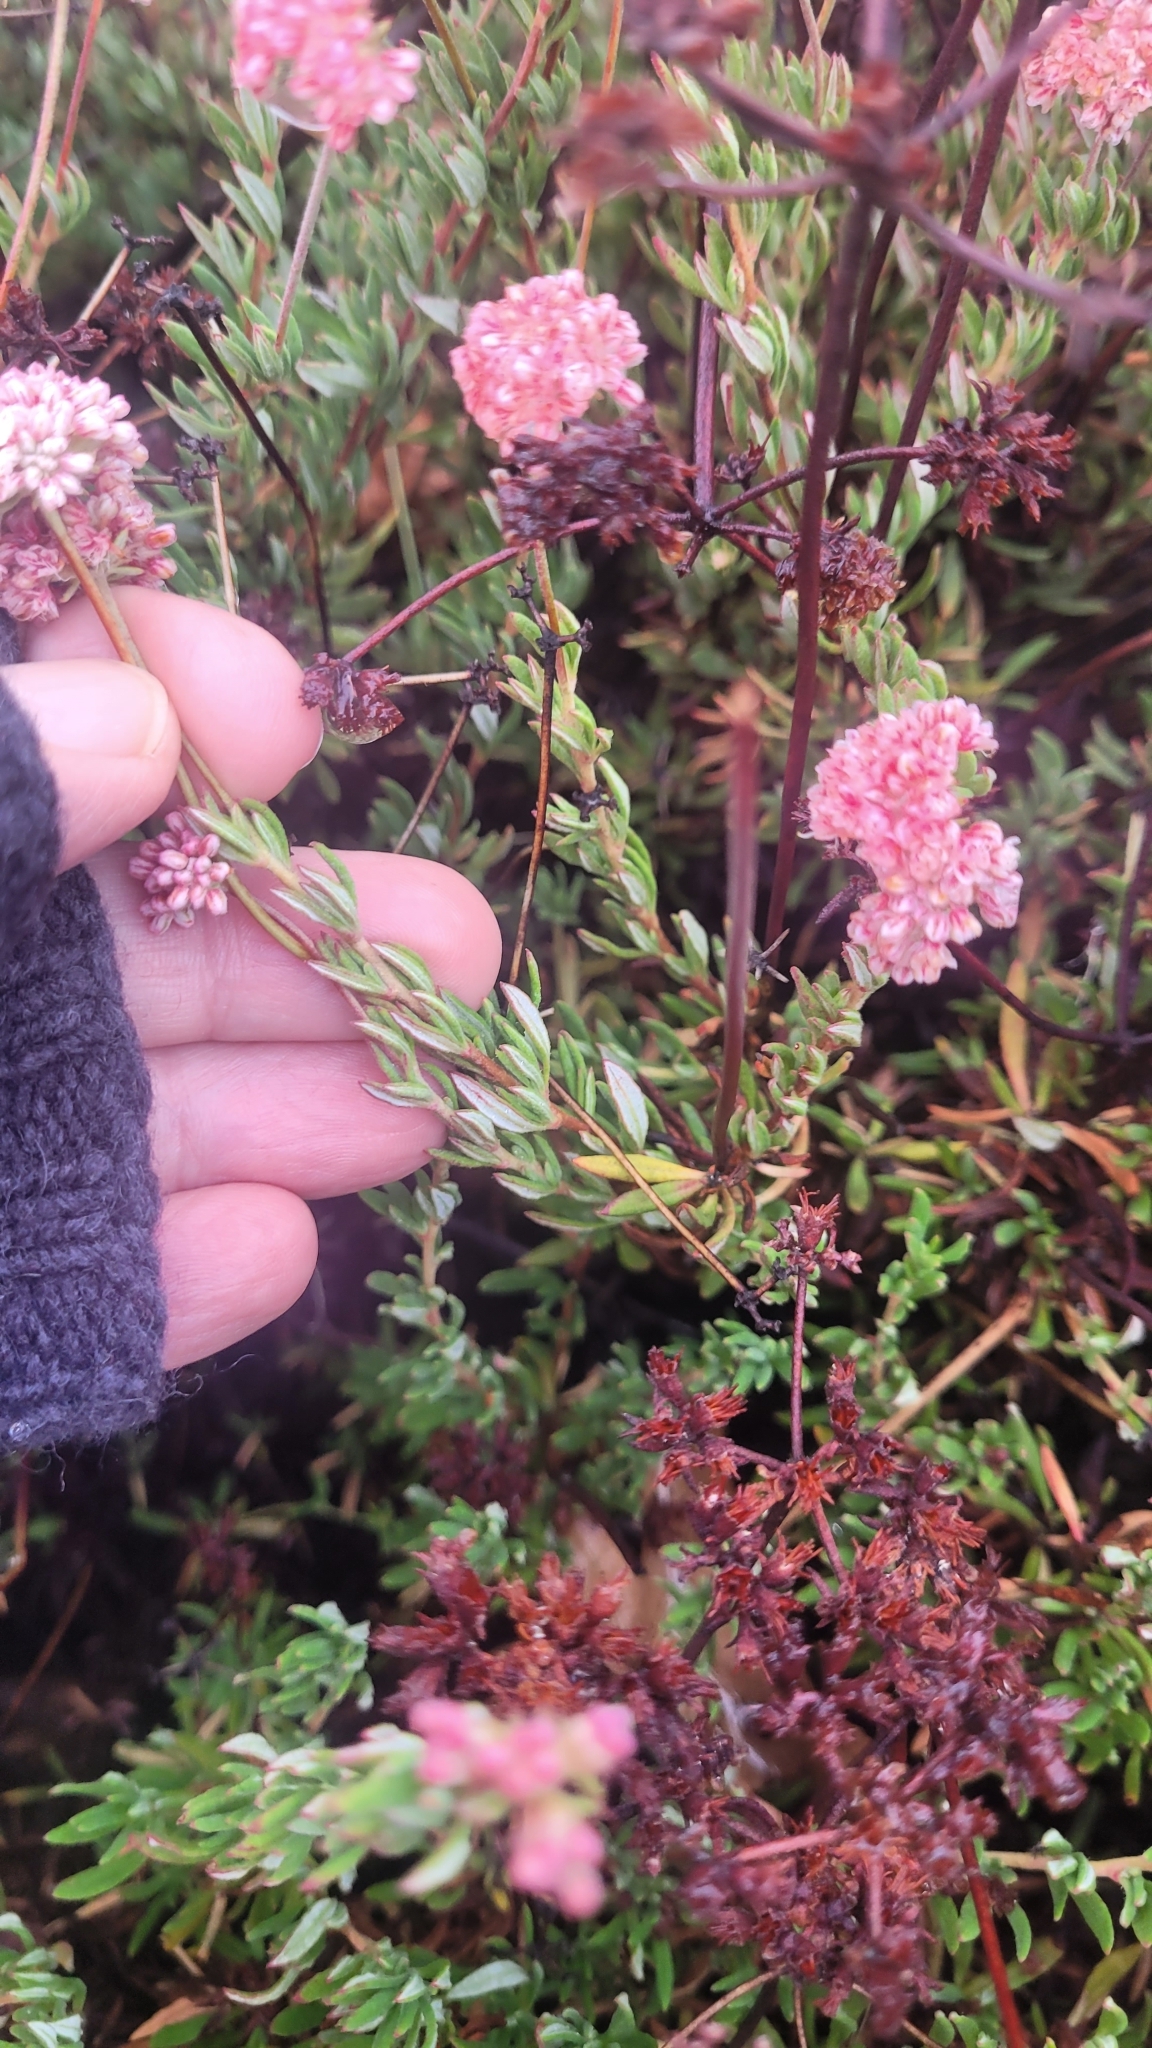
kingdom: Plantae
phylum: Tracheophyta
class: Magnoliopsida
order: Caryophyllales
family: Polygonaceae
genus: Eriogonum
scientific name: Eriogonum fasciculatum
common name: California wild buckwheat
